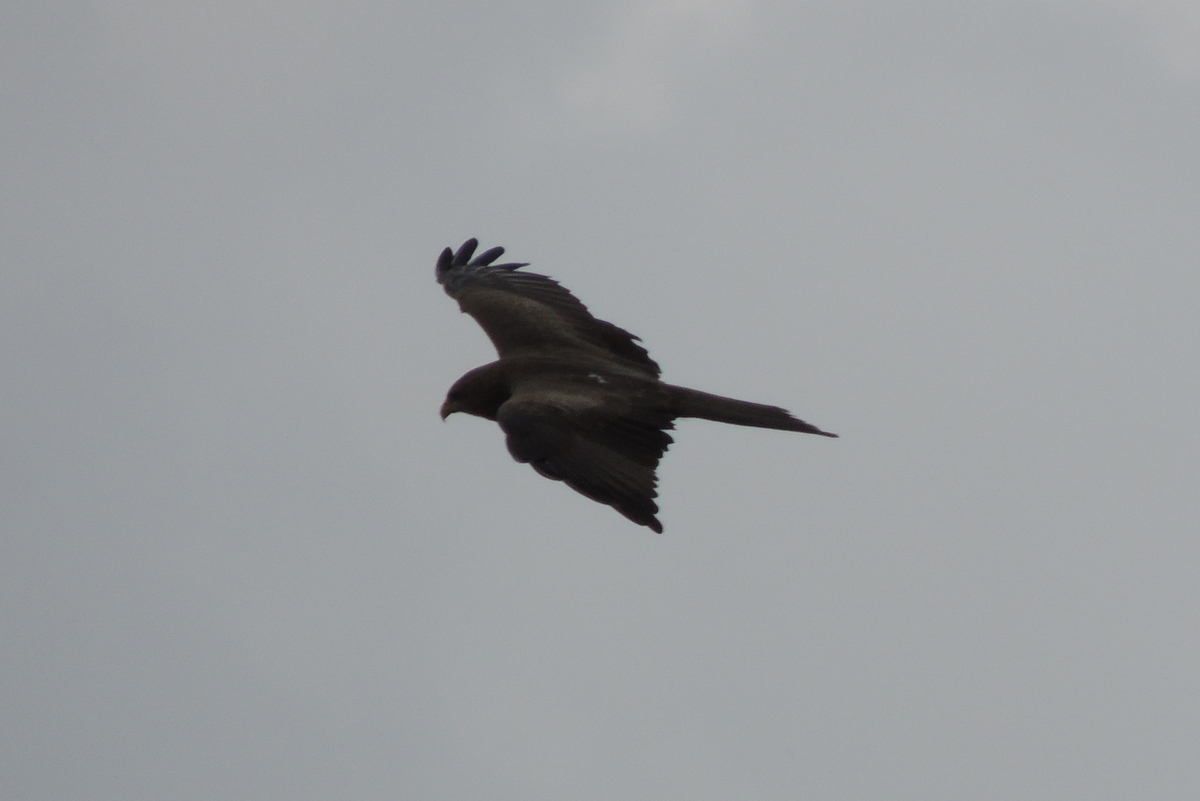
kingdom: Animalia
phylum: Chordata
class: Aves
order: Accipitriformes
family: Accipitridae
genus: Milvus
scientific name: Milvus migrans
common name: Black kite
